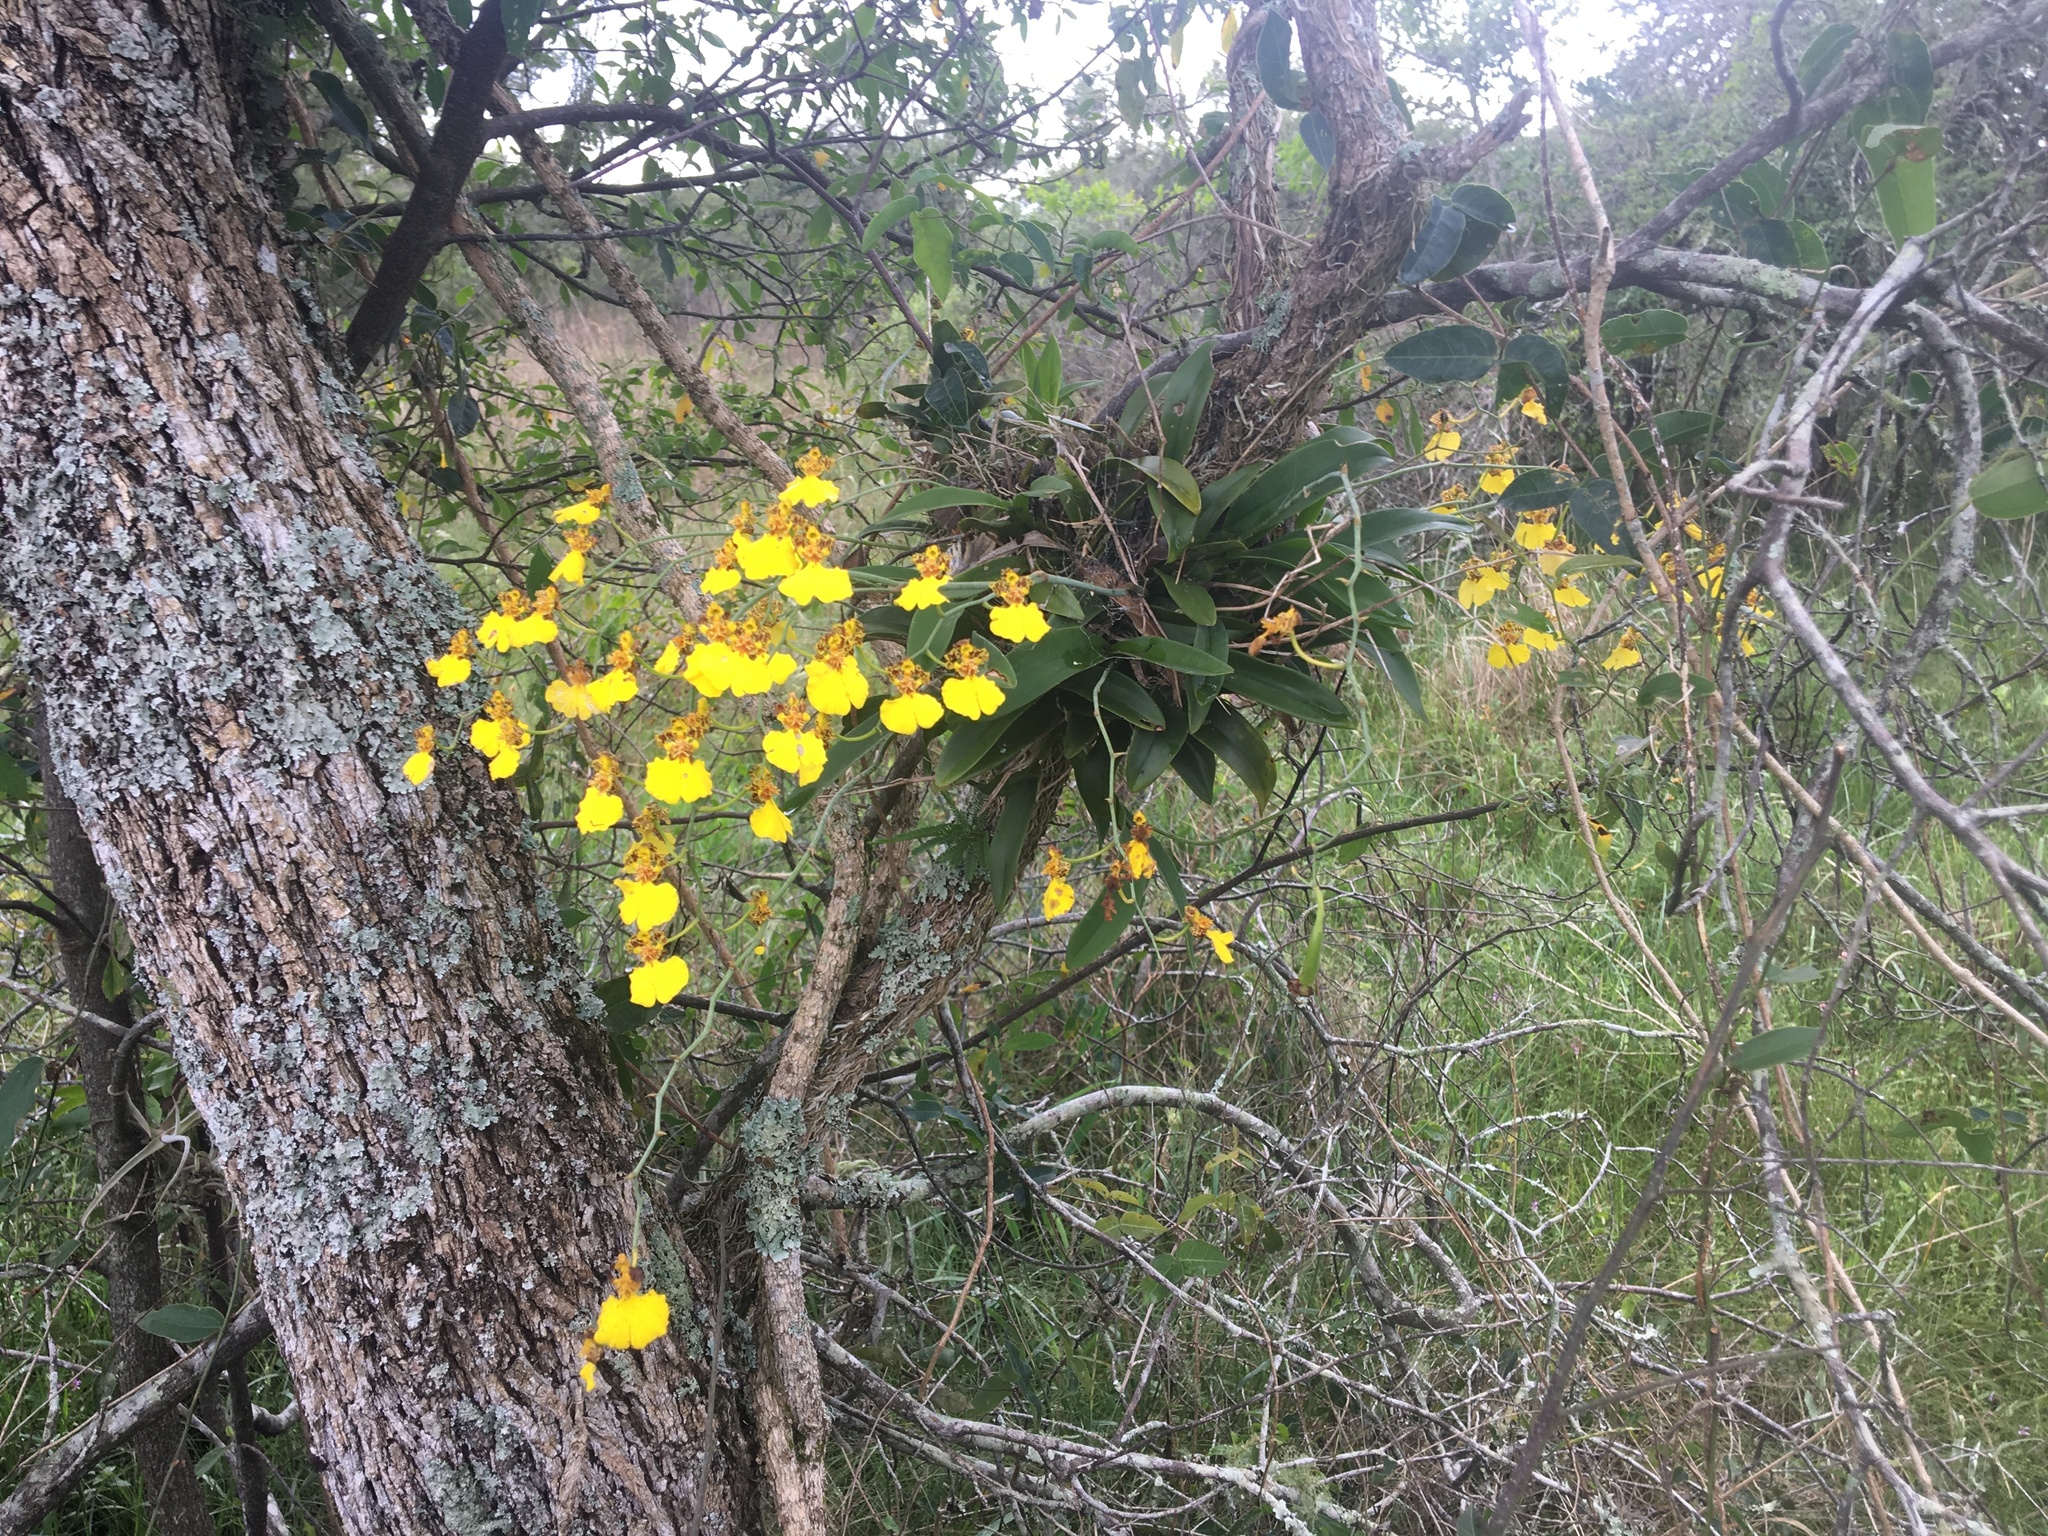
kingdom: Plantae
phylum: Tracheophyta
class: Liliopsida
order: Asparagales
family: Orchidaceae
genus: Gomesa
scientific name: Gomesa bifolia
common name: Dancing ladies
